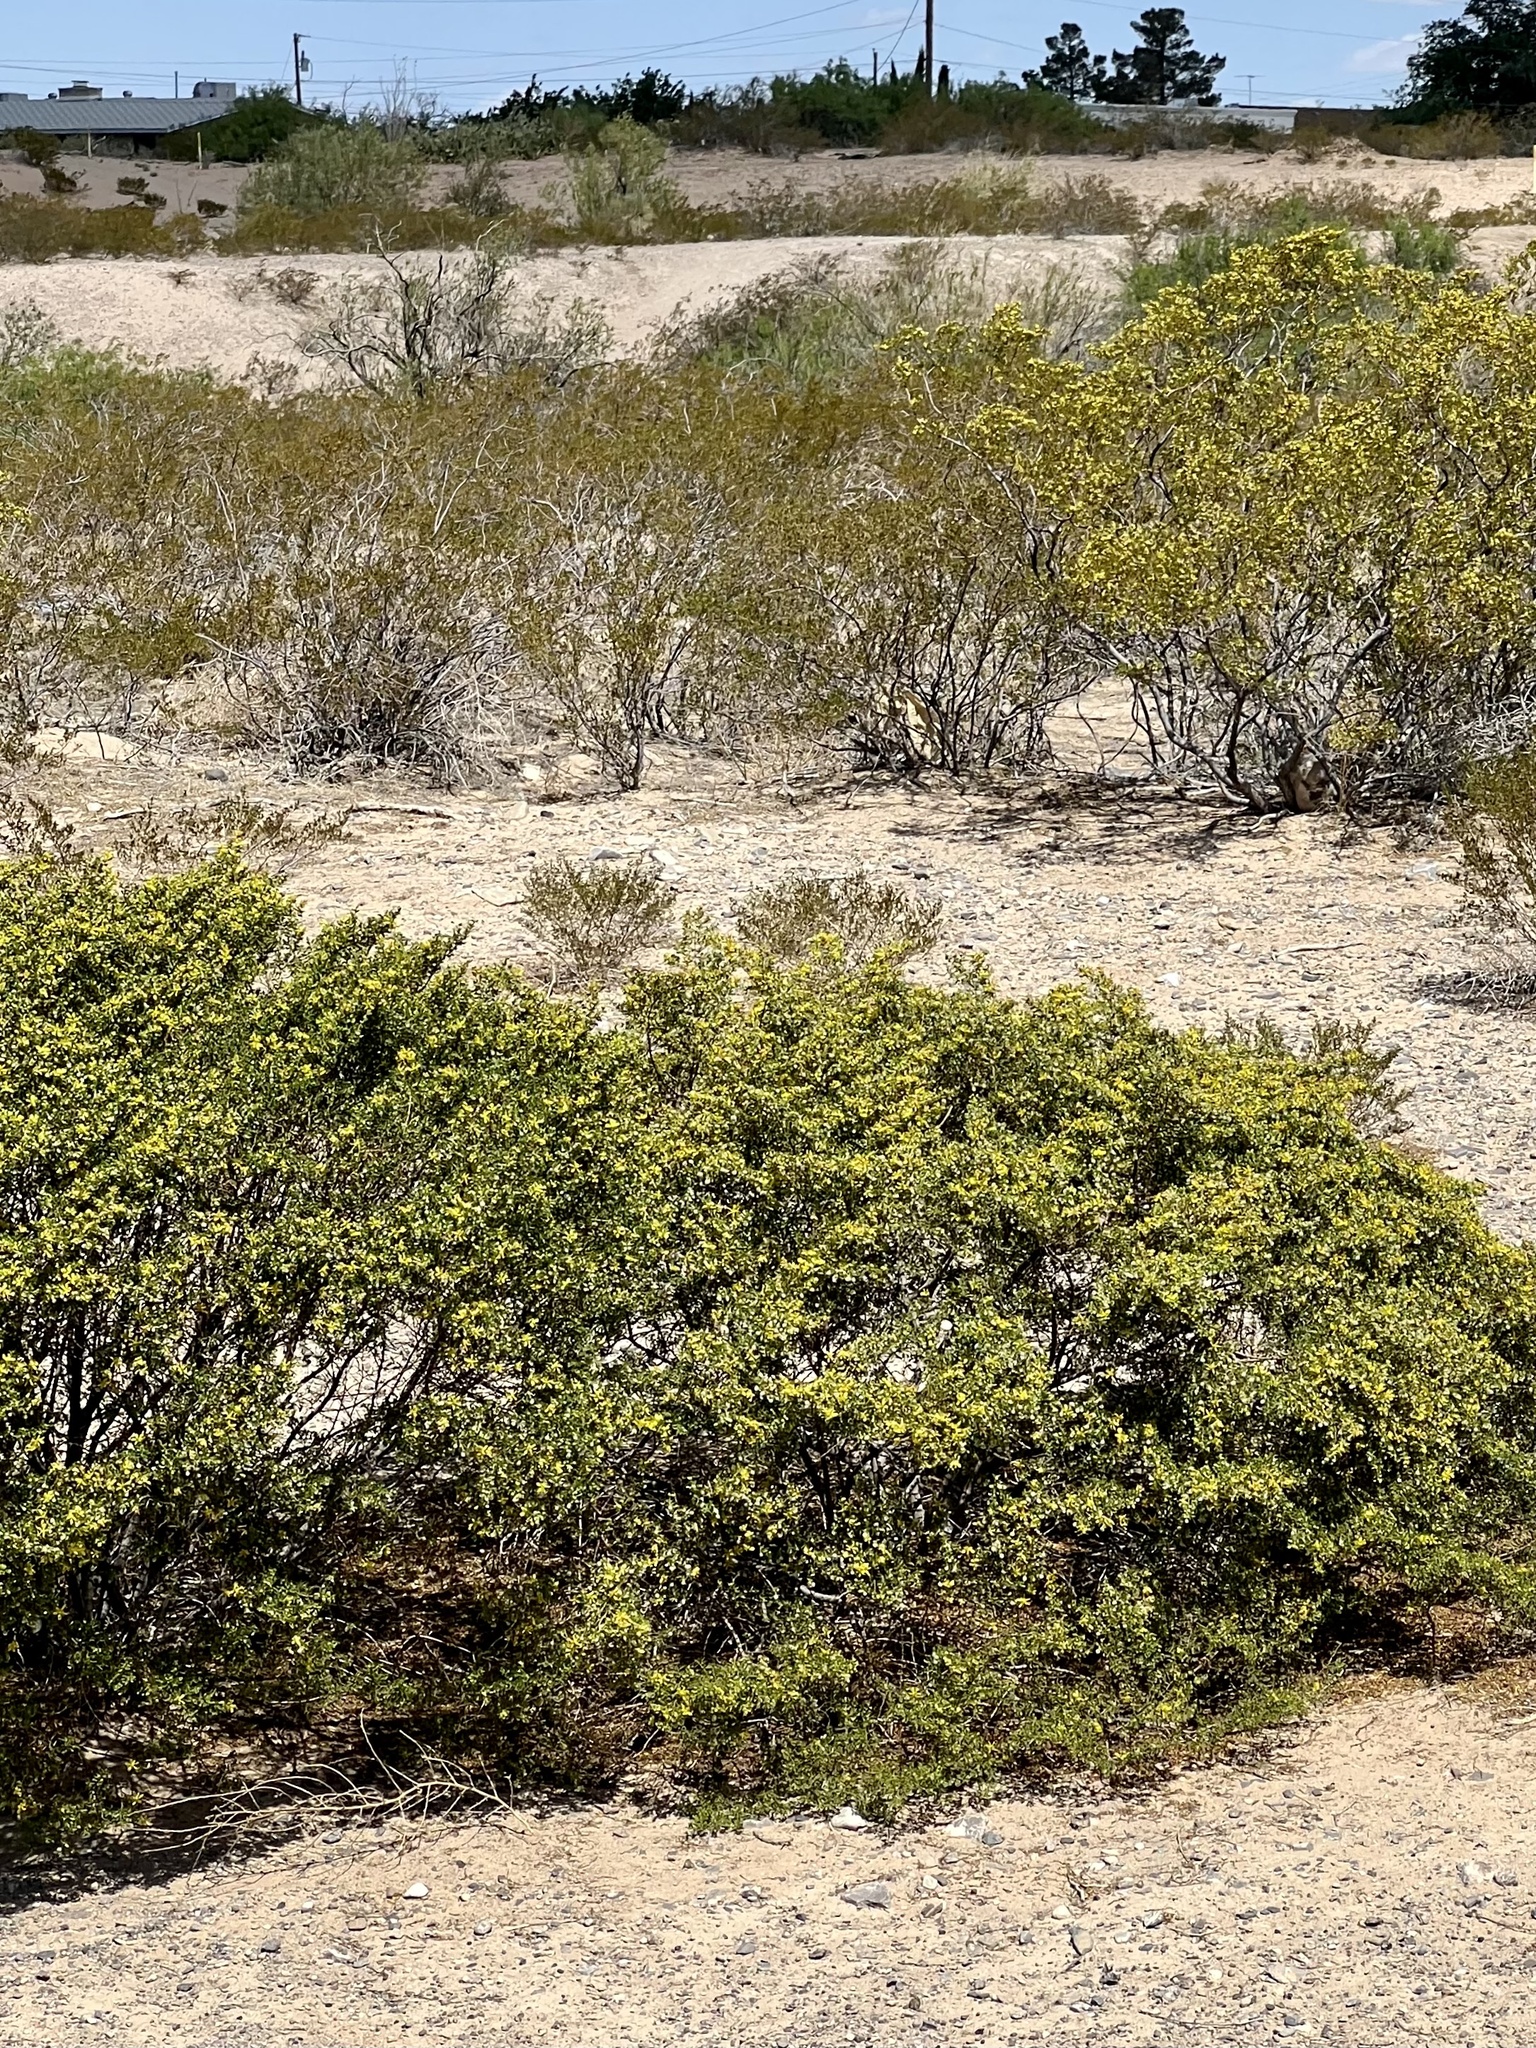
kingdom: Plantae
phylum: Tracheophyta
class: Magnoliopsida
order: Zygophyllales
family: Zygophyllaceae
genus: Larrea
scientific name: Larrea tridentata
